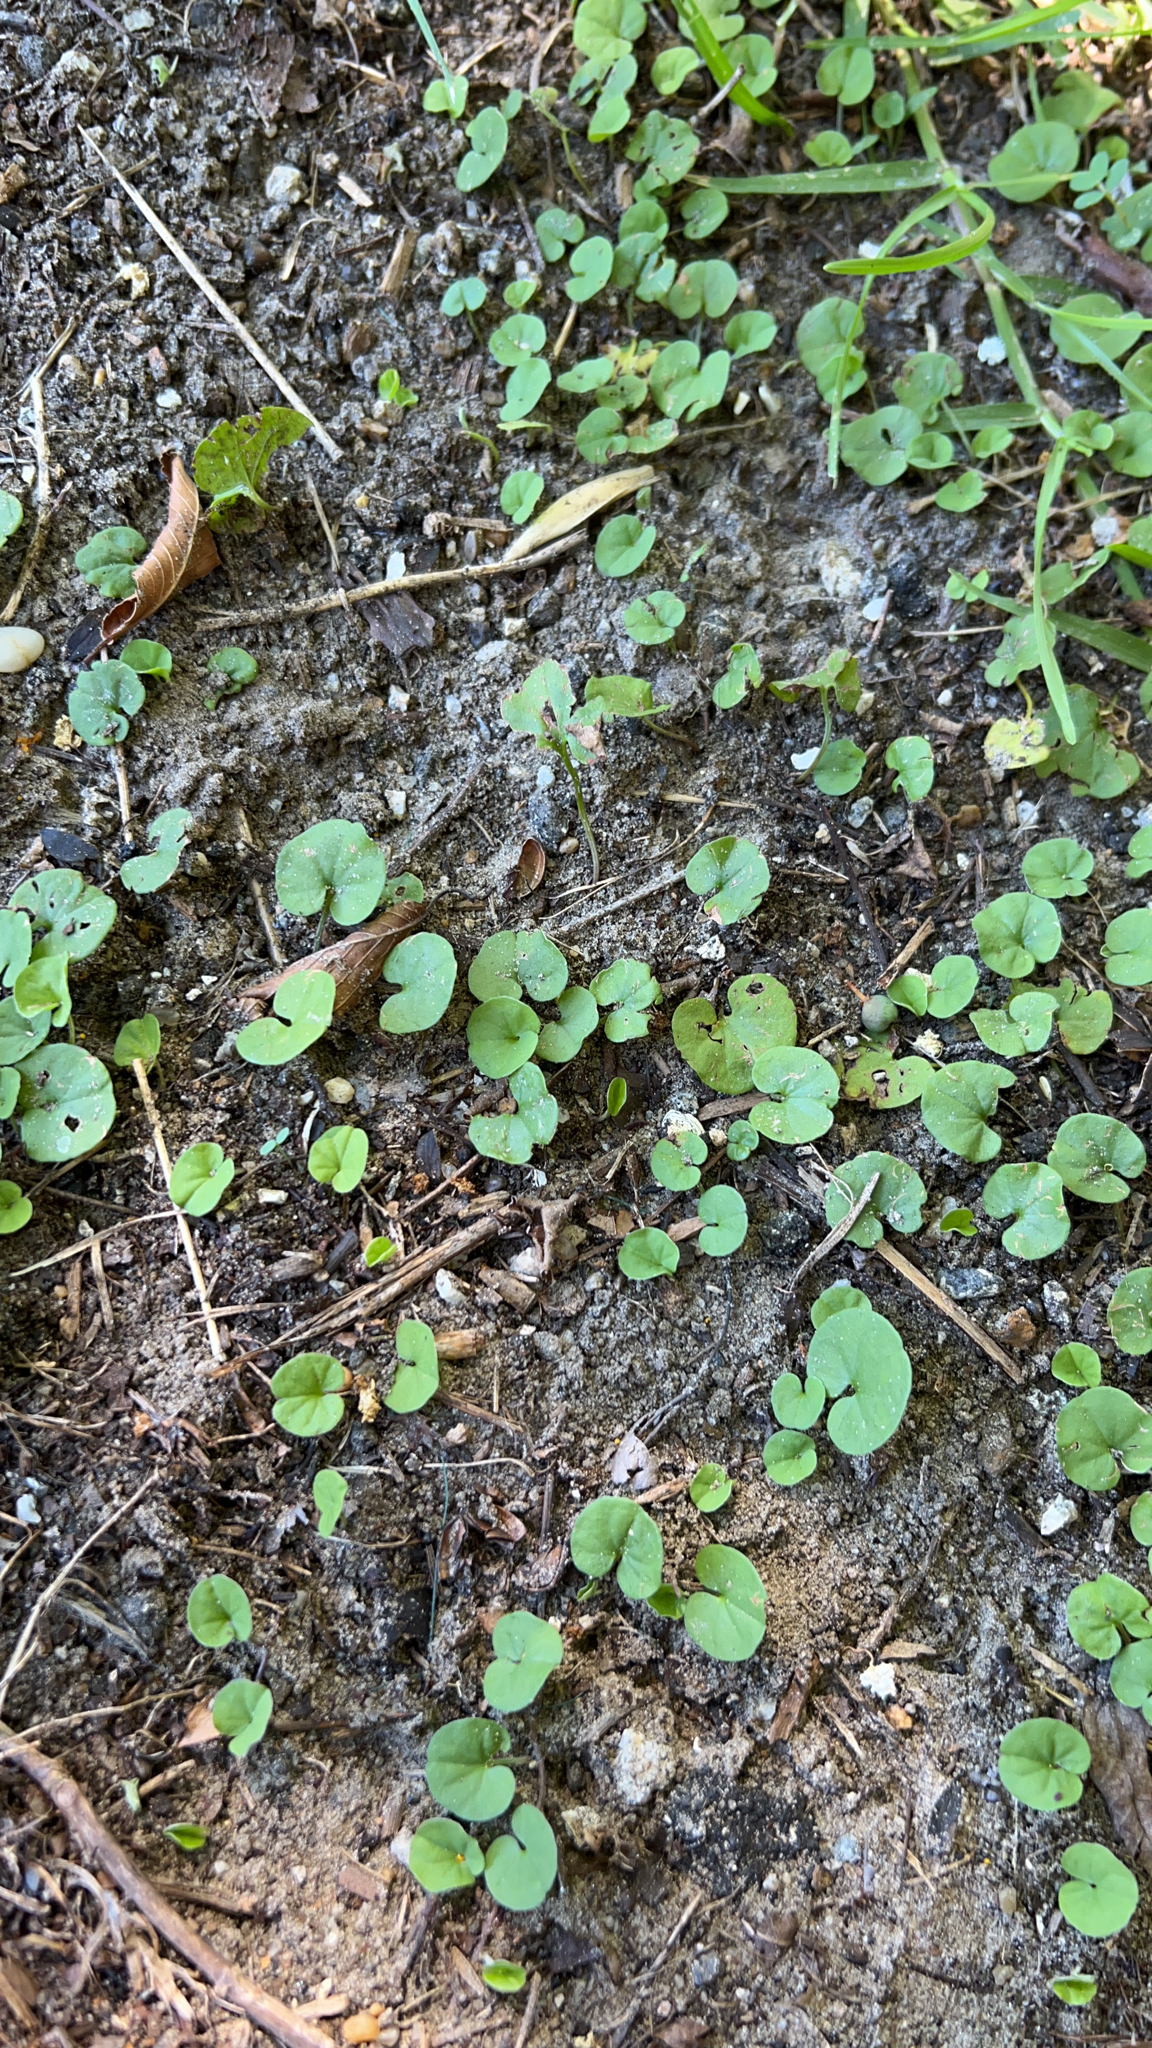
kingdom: Plantae
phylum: Tracheophyta
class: Magnoliopsida
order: Solanales
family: Convolvulaceae
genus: Dichondra
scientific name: Dichondra carolinensis
